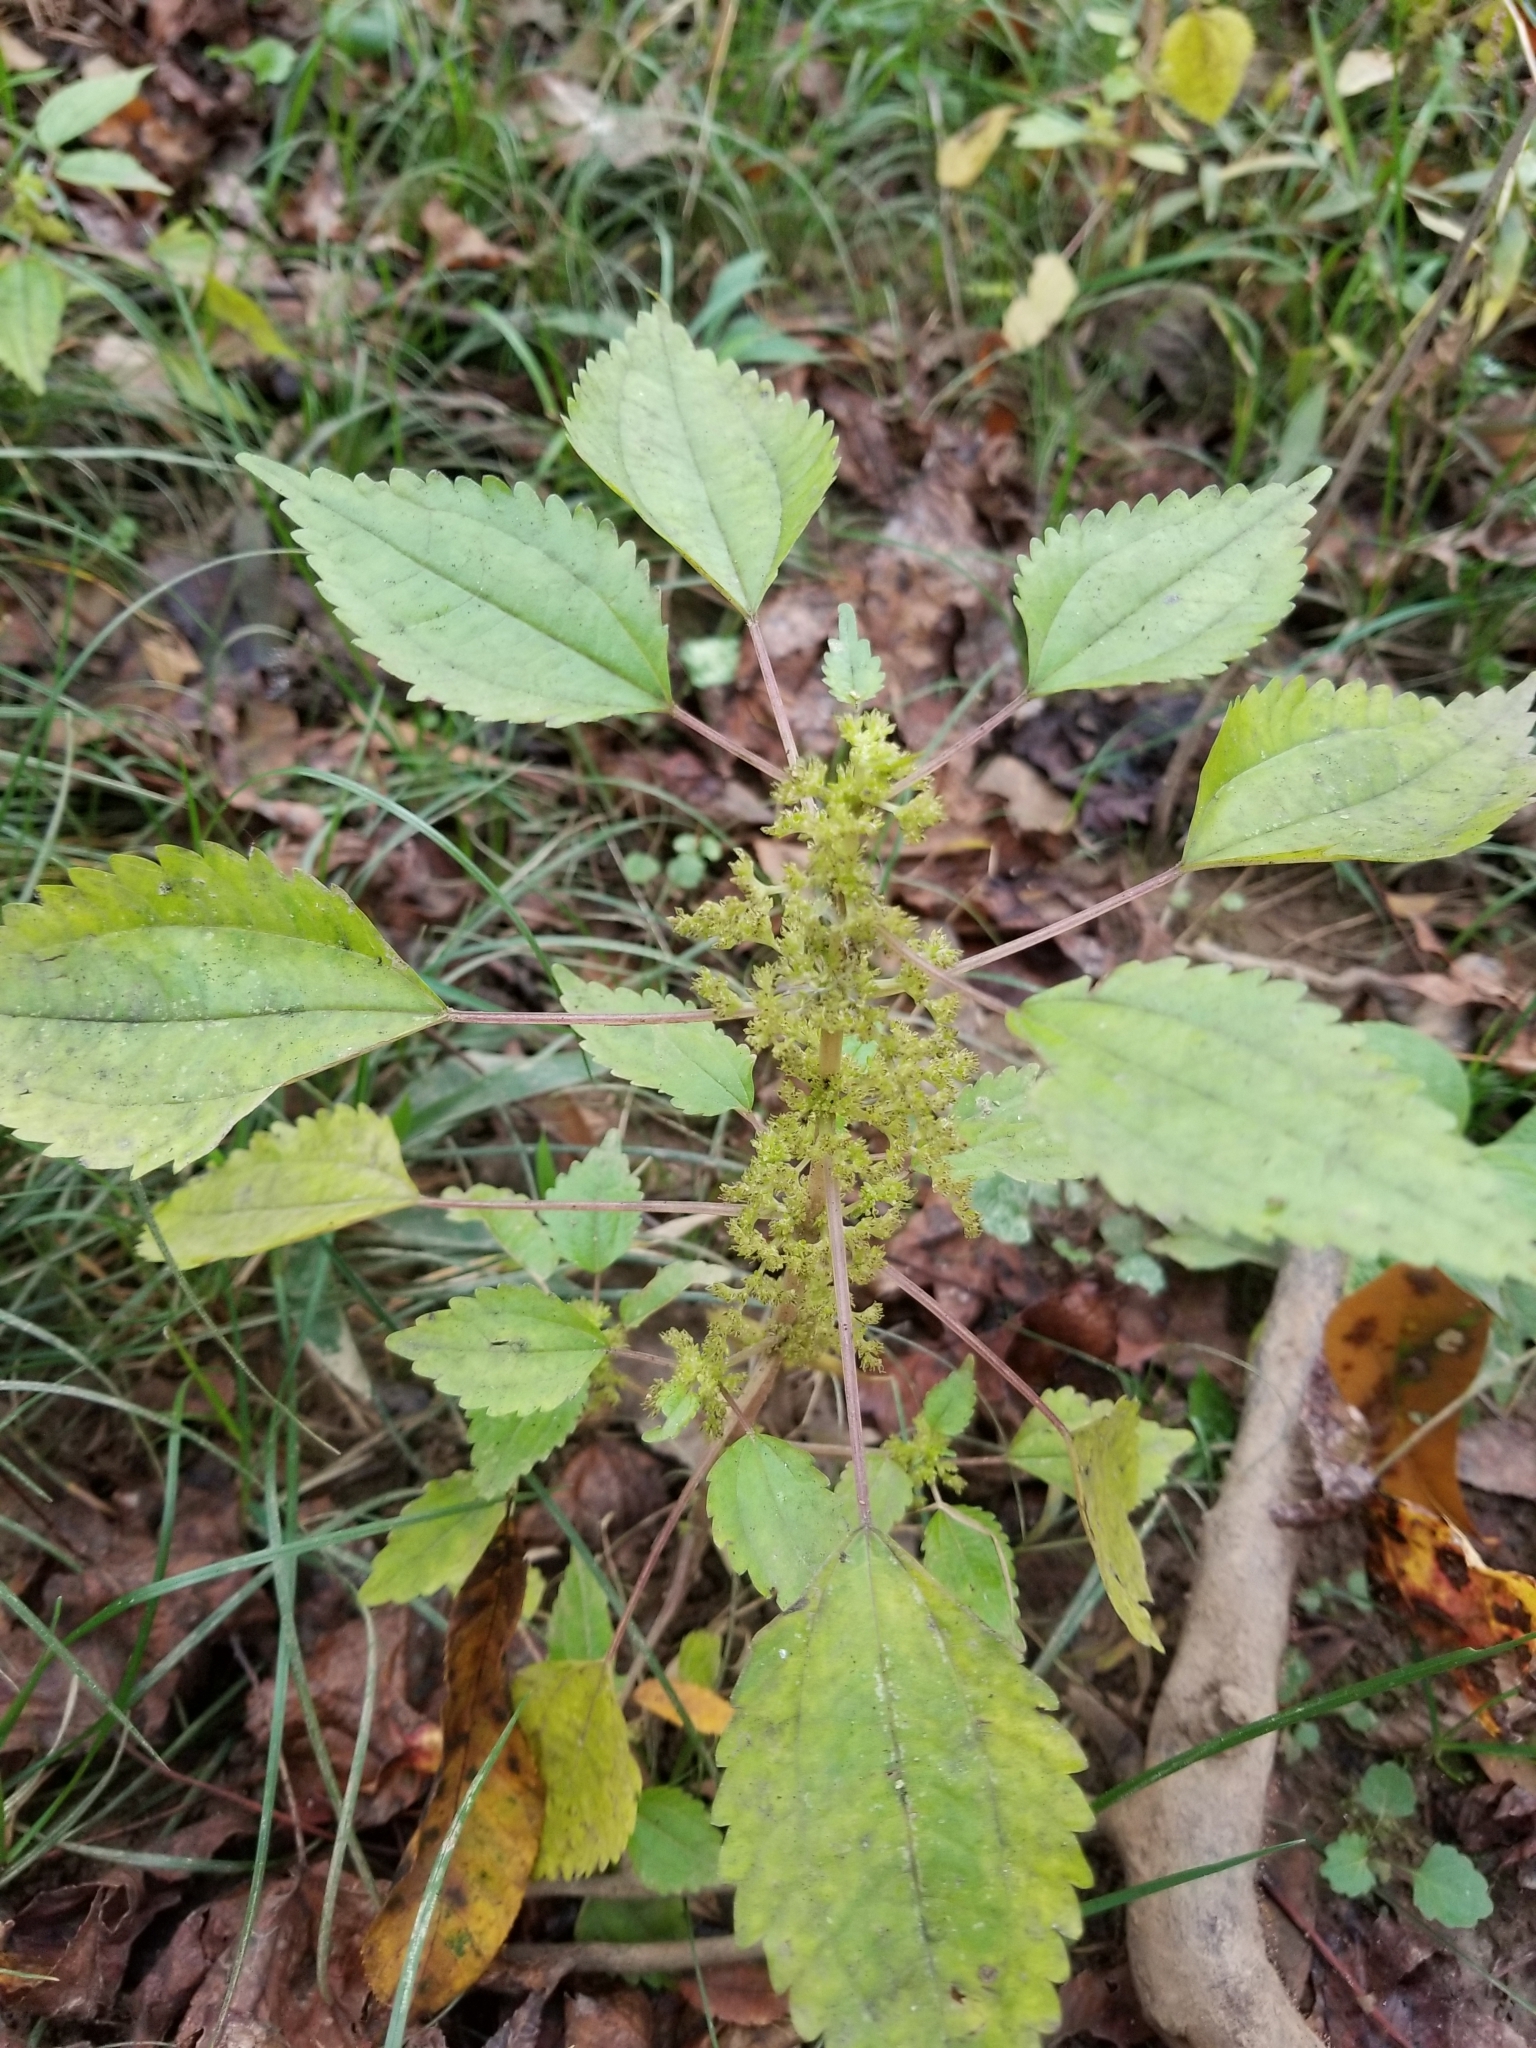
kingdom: Plantae
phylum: Tracheophyta
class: Magnoliopsida
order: Rosales
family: Urticaceae
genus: Pilea
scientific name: Pilea pumila
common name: Clearweed
